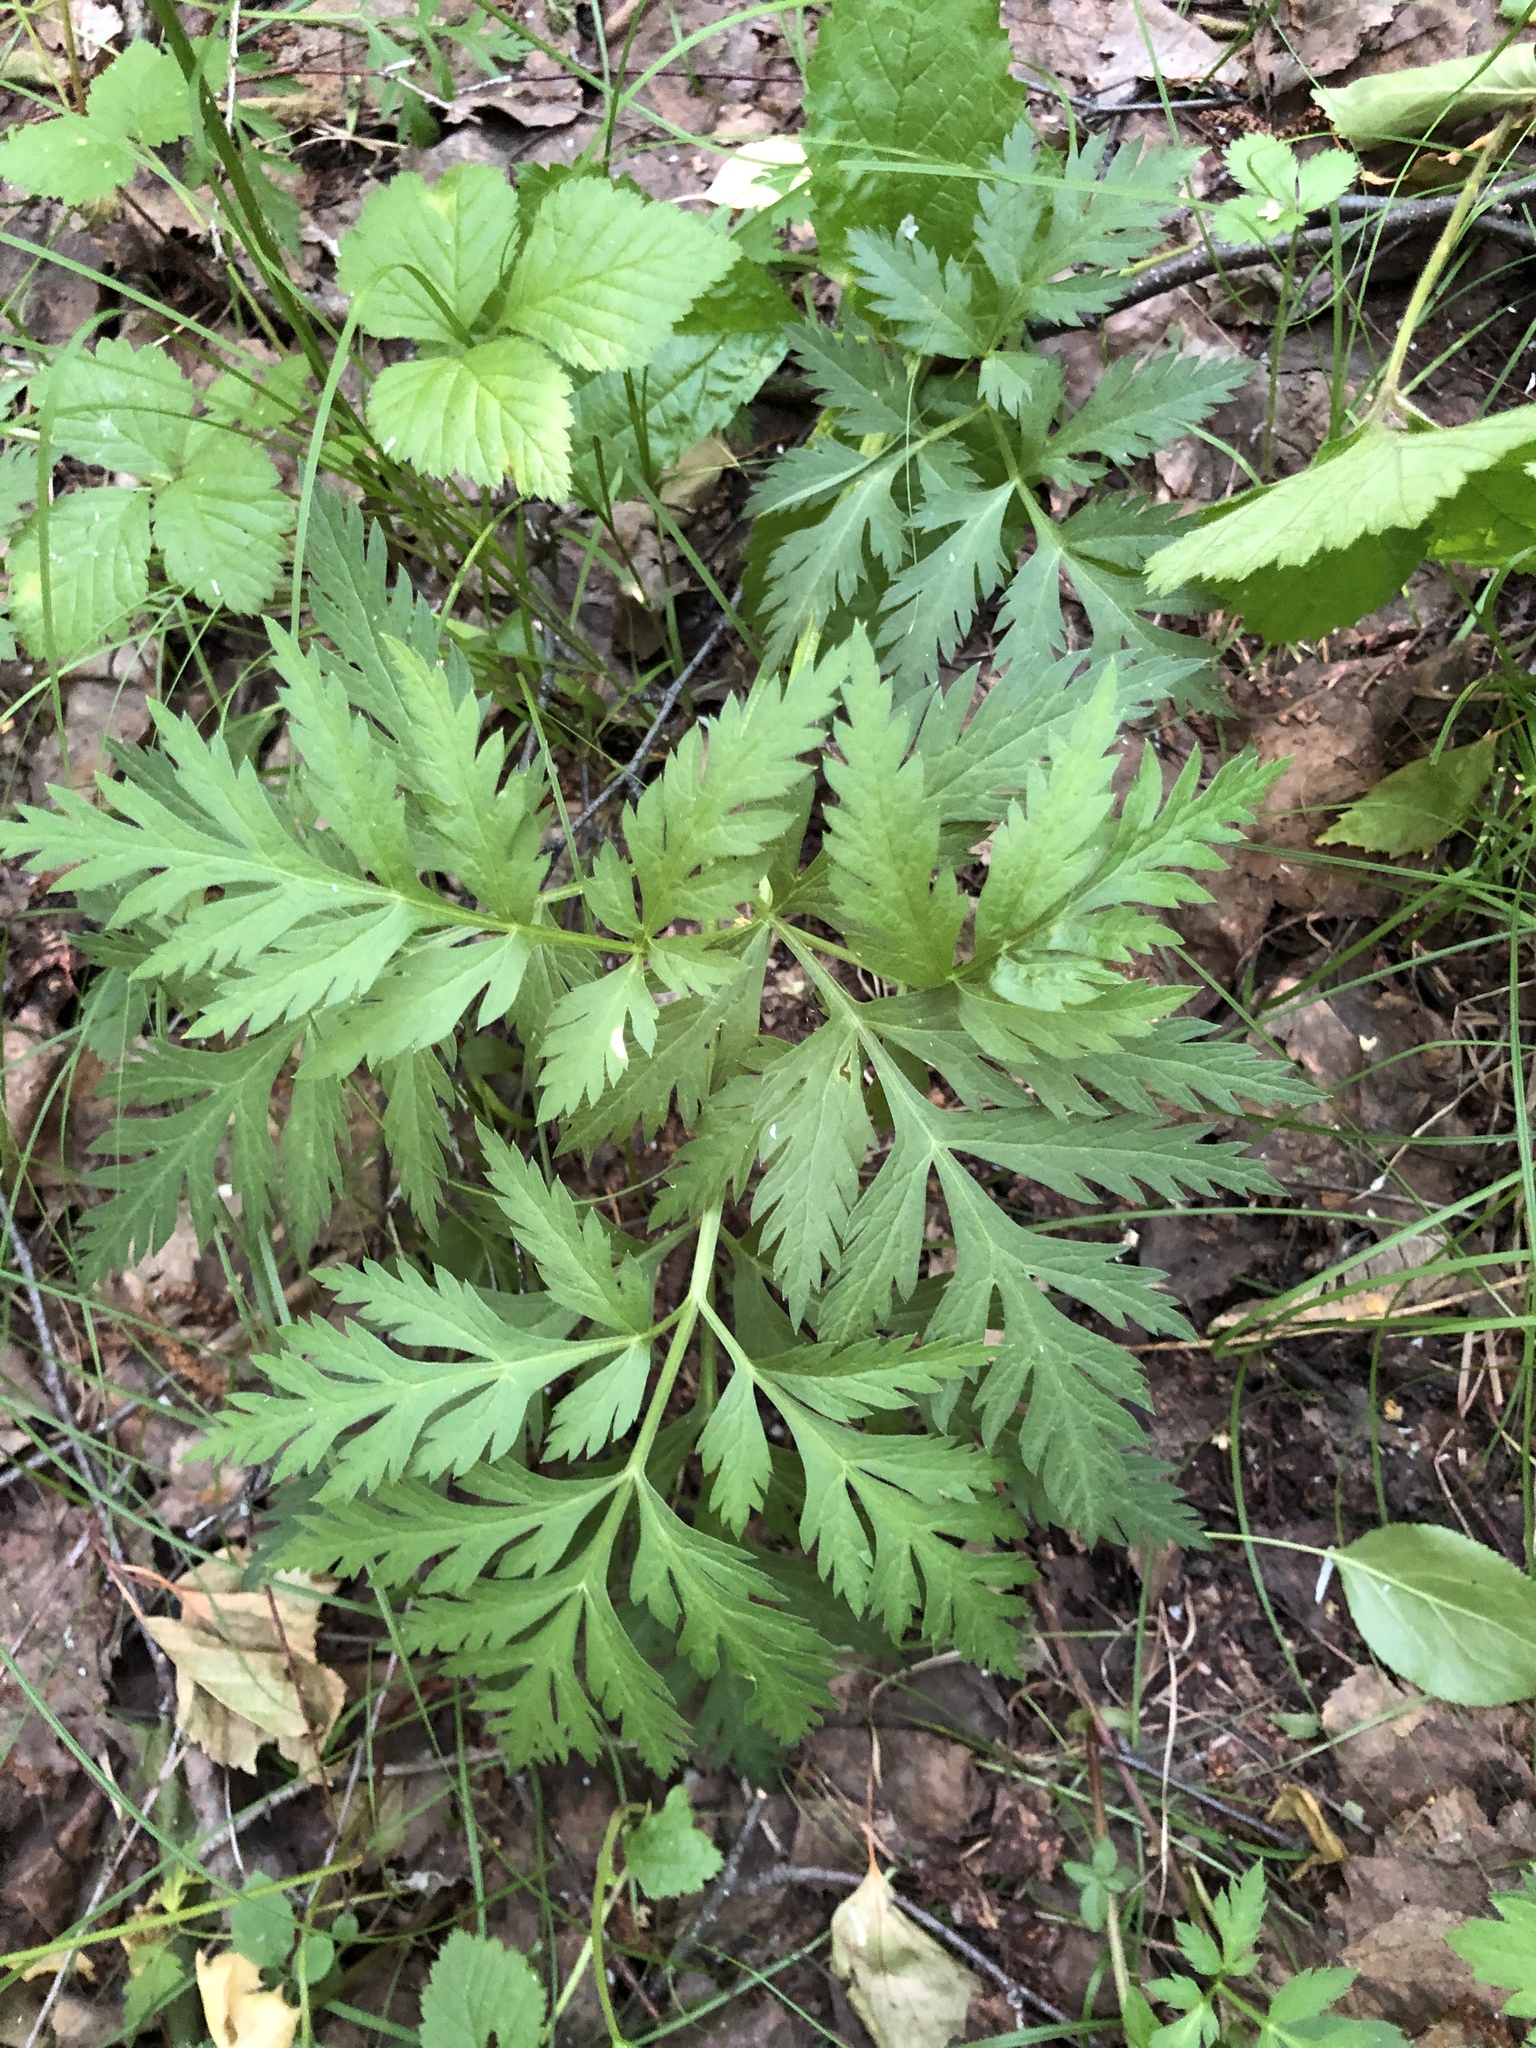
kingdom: Plantae
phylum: Tracheophyta
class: Magnoliopsida
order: Apiales
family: Apiaceae
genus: Pleurospermum
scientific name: Pleurospermum uralense
